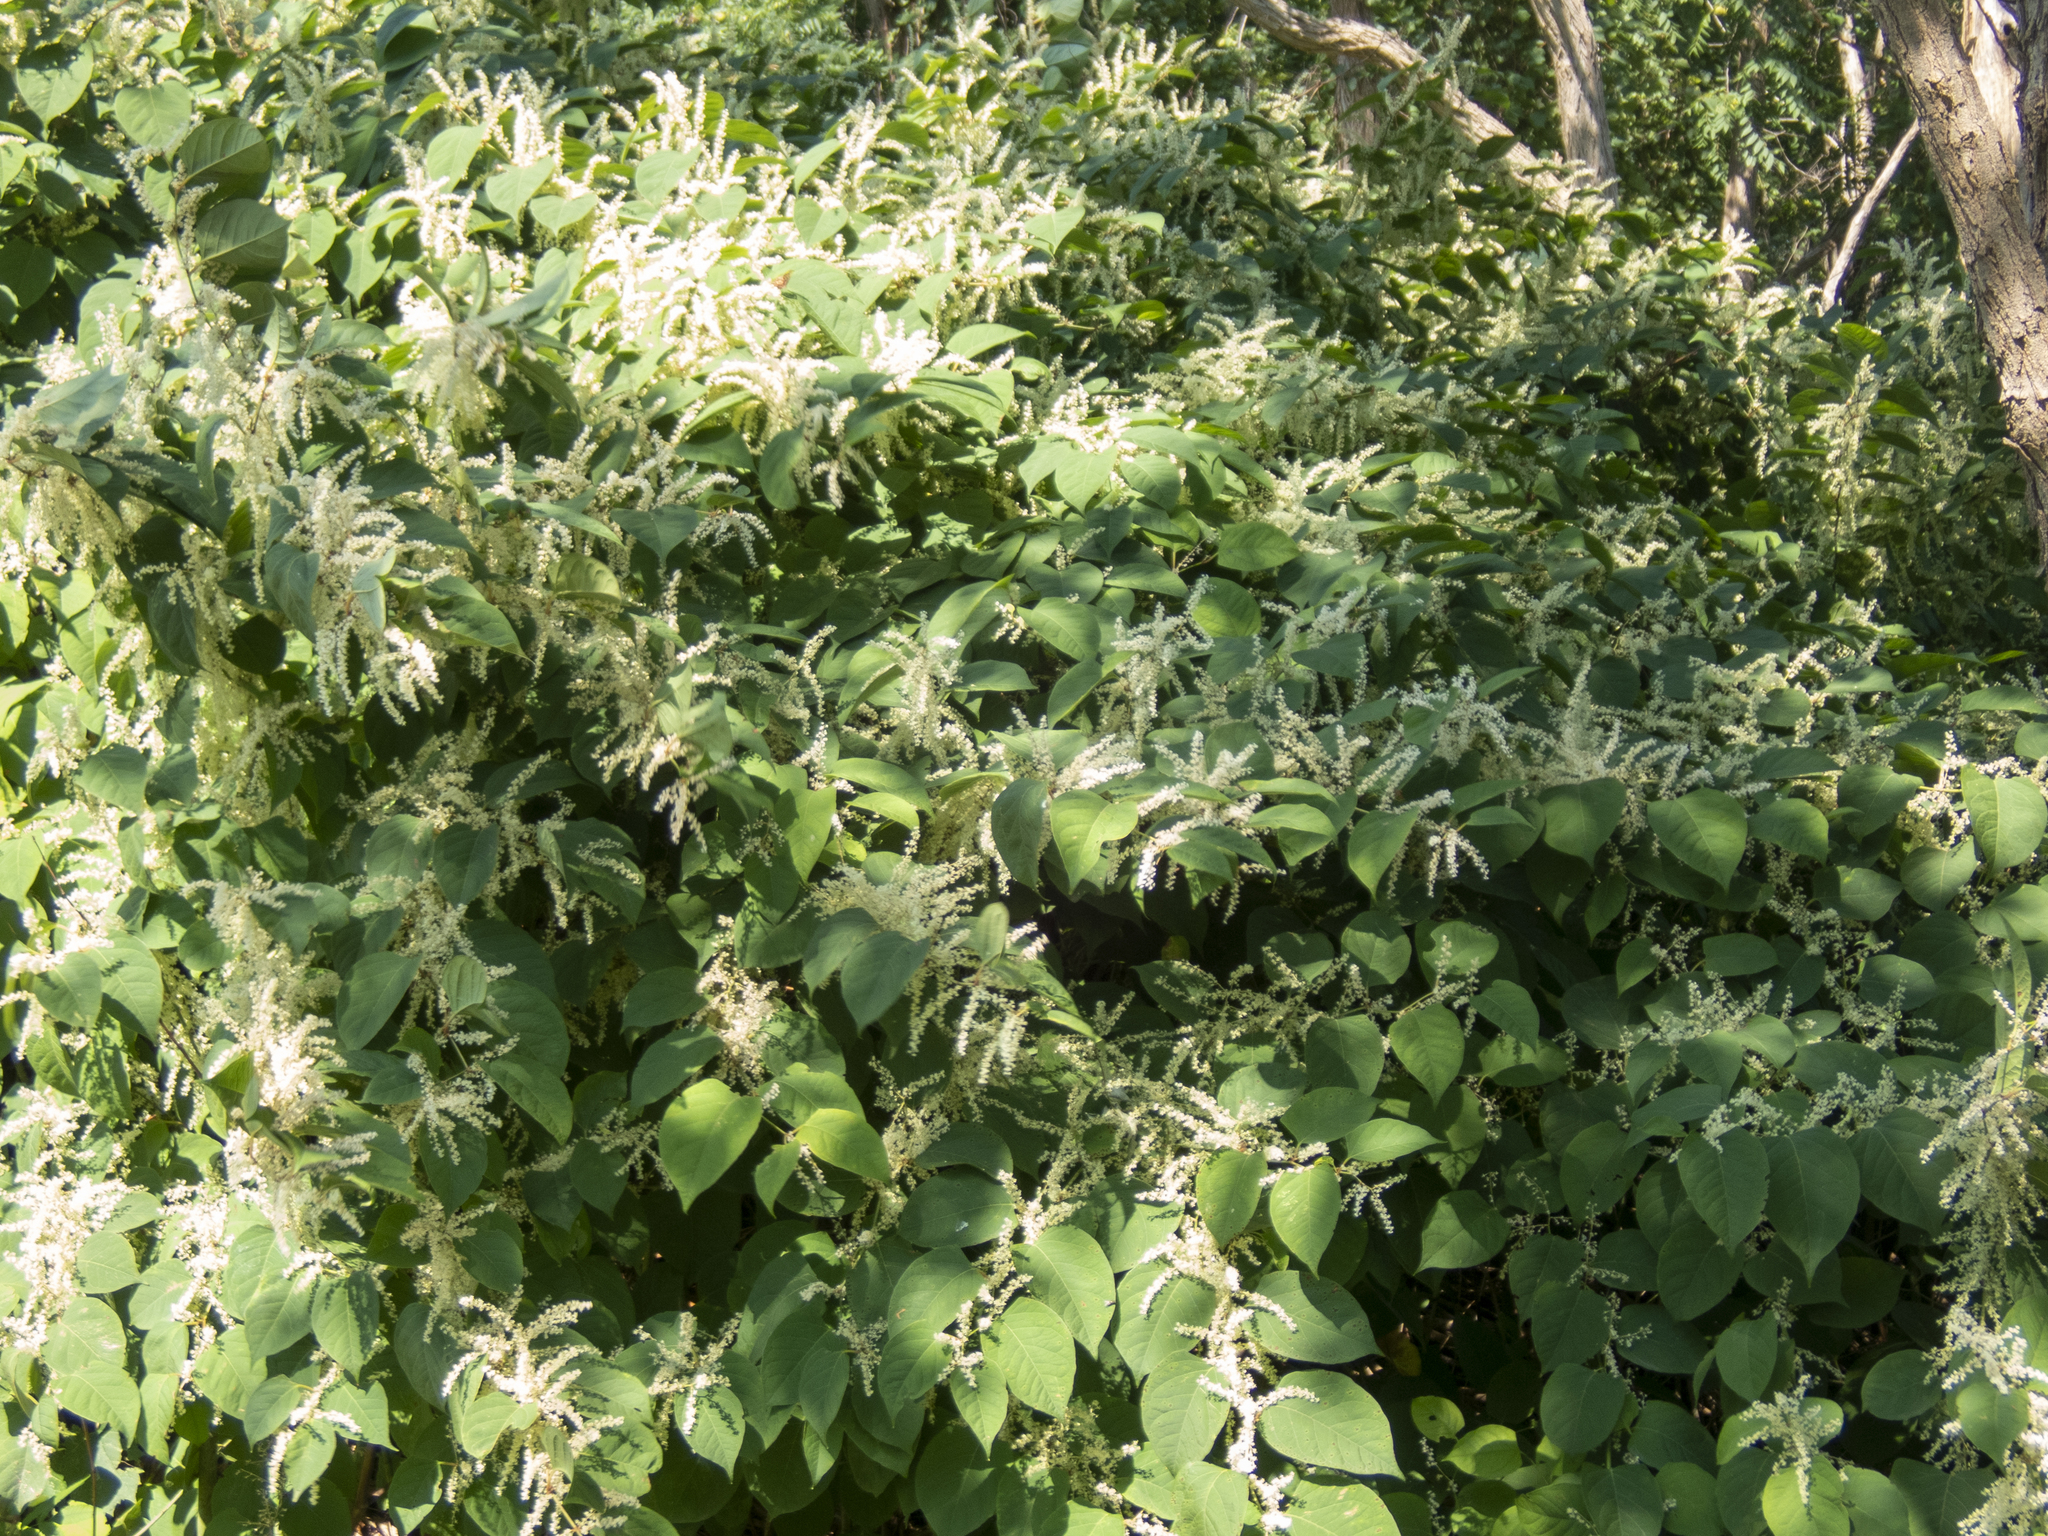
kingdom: Plantae
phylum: Tracheophyta
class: Magnoliopsida
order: Caryophyllales
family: Polygonaceae
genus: Reynoutria
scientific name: Reynoutria japonica
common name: Japanese knotweed
